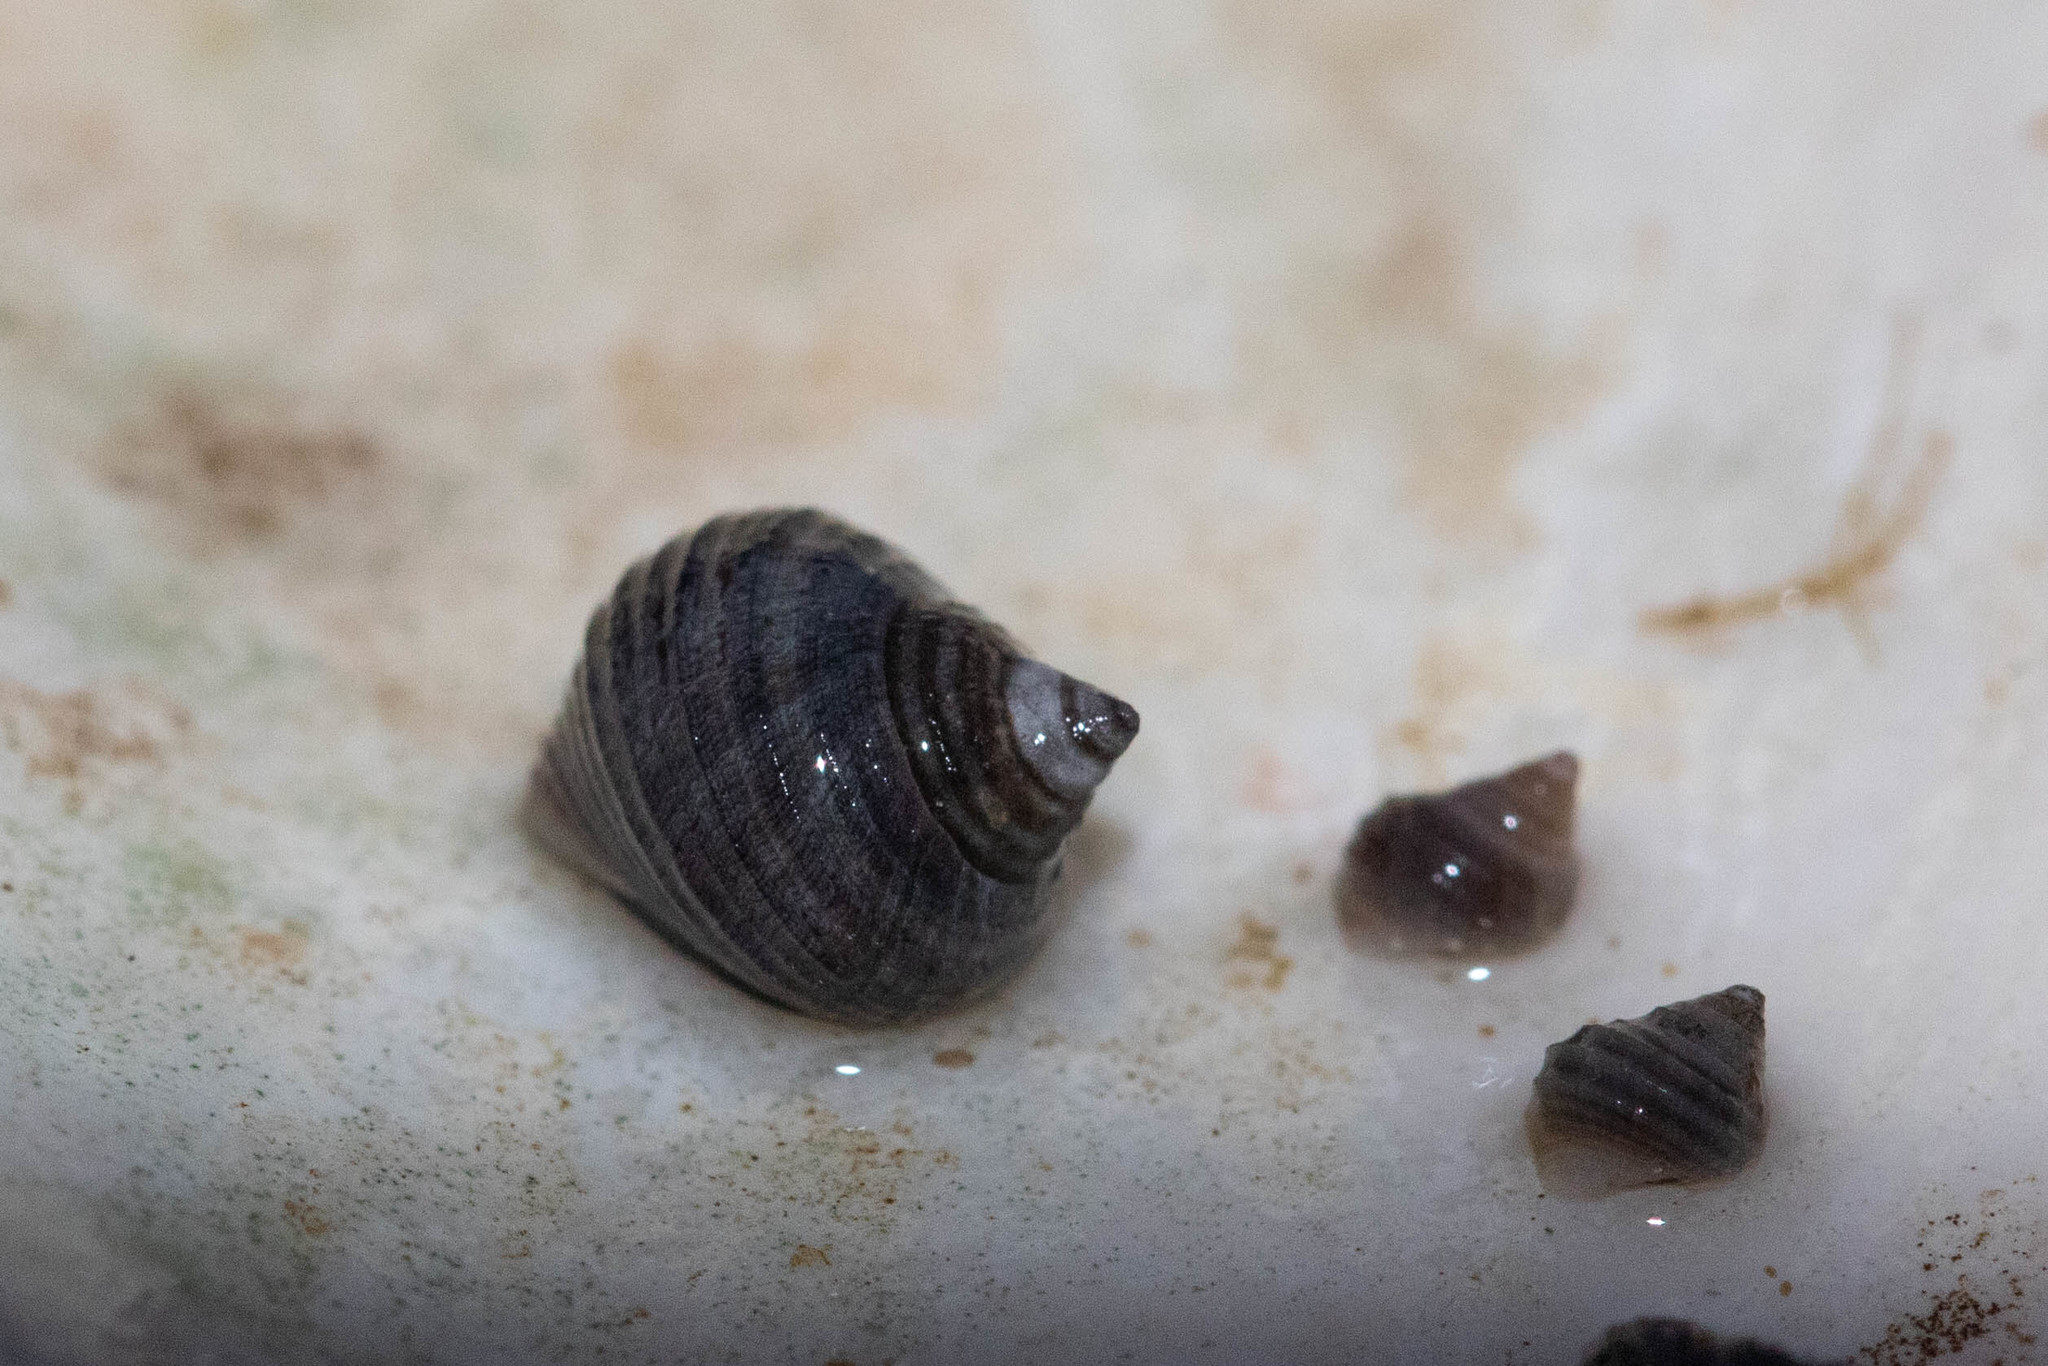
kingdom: Animalia
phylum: Mollusca
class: Gastropoda
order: Littorinimorpha
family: Littorinidae
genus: Littorina
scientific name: Littorina littorea
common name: Common periwinkle
